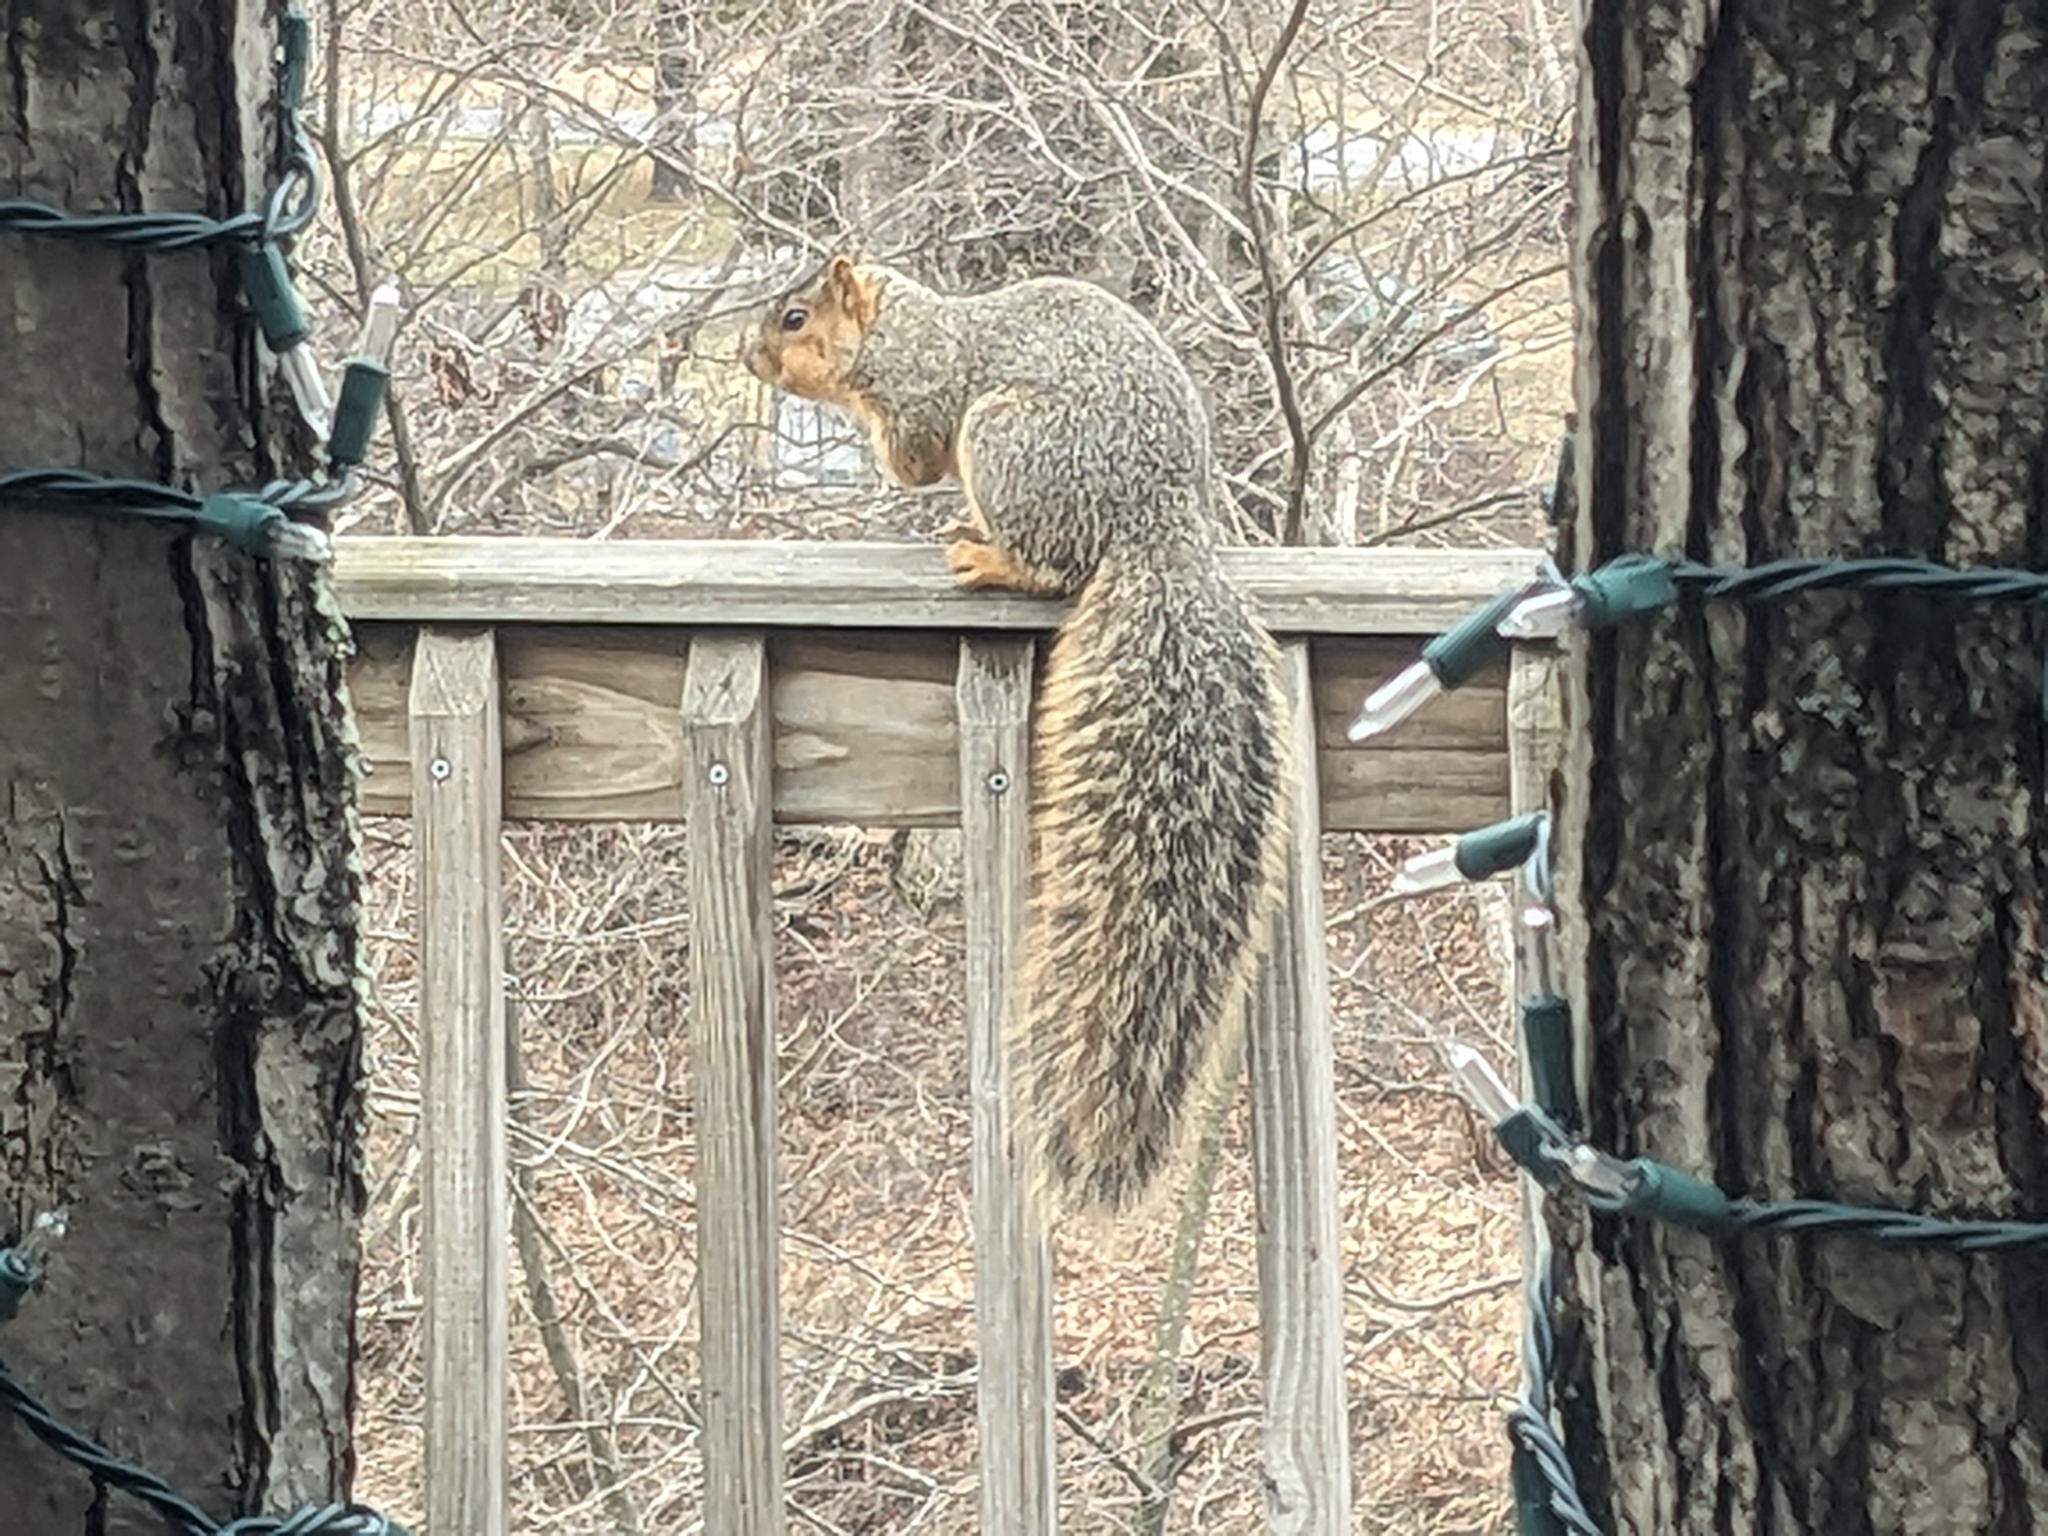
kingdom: Animalia
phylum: Chordata
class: Mammalia
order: Rodentia
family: Sciuridae
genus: Sciurus
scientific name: Sciurus niger
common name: Fox squirrel
